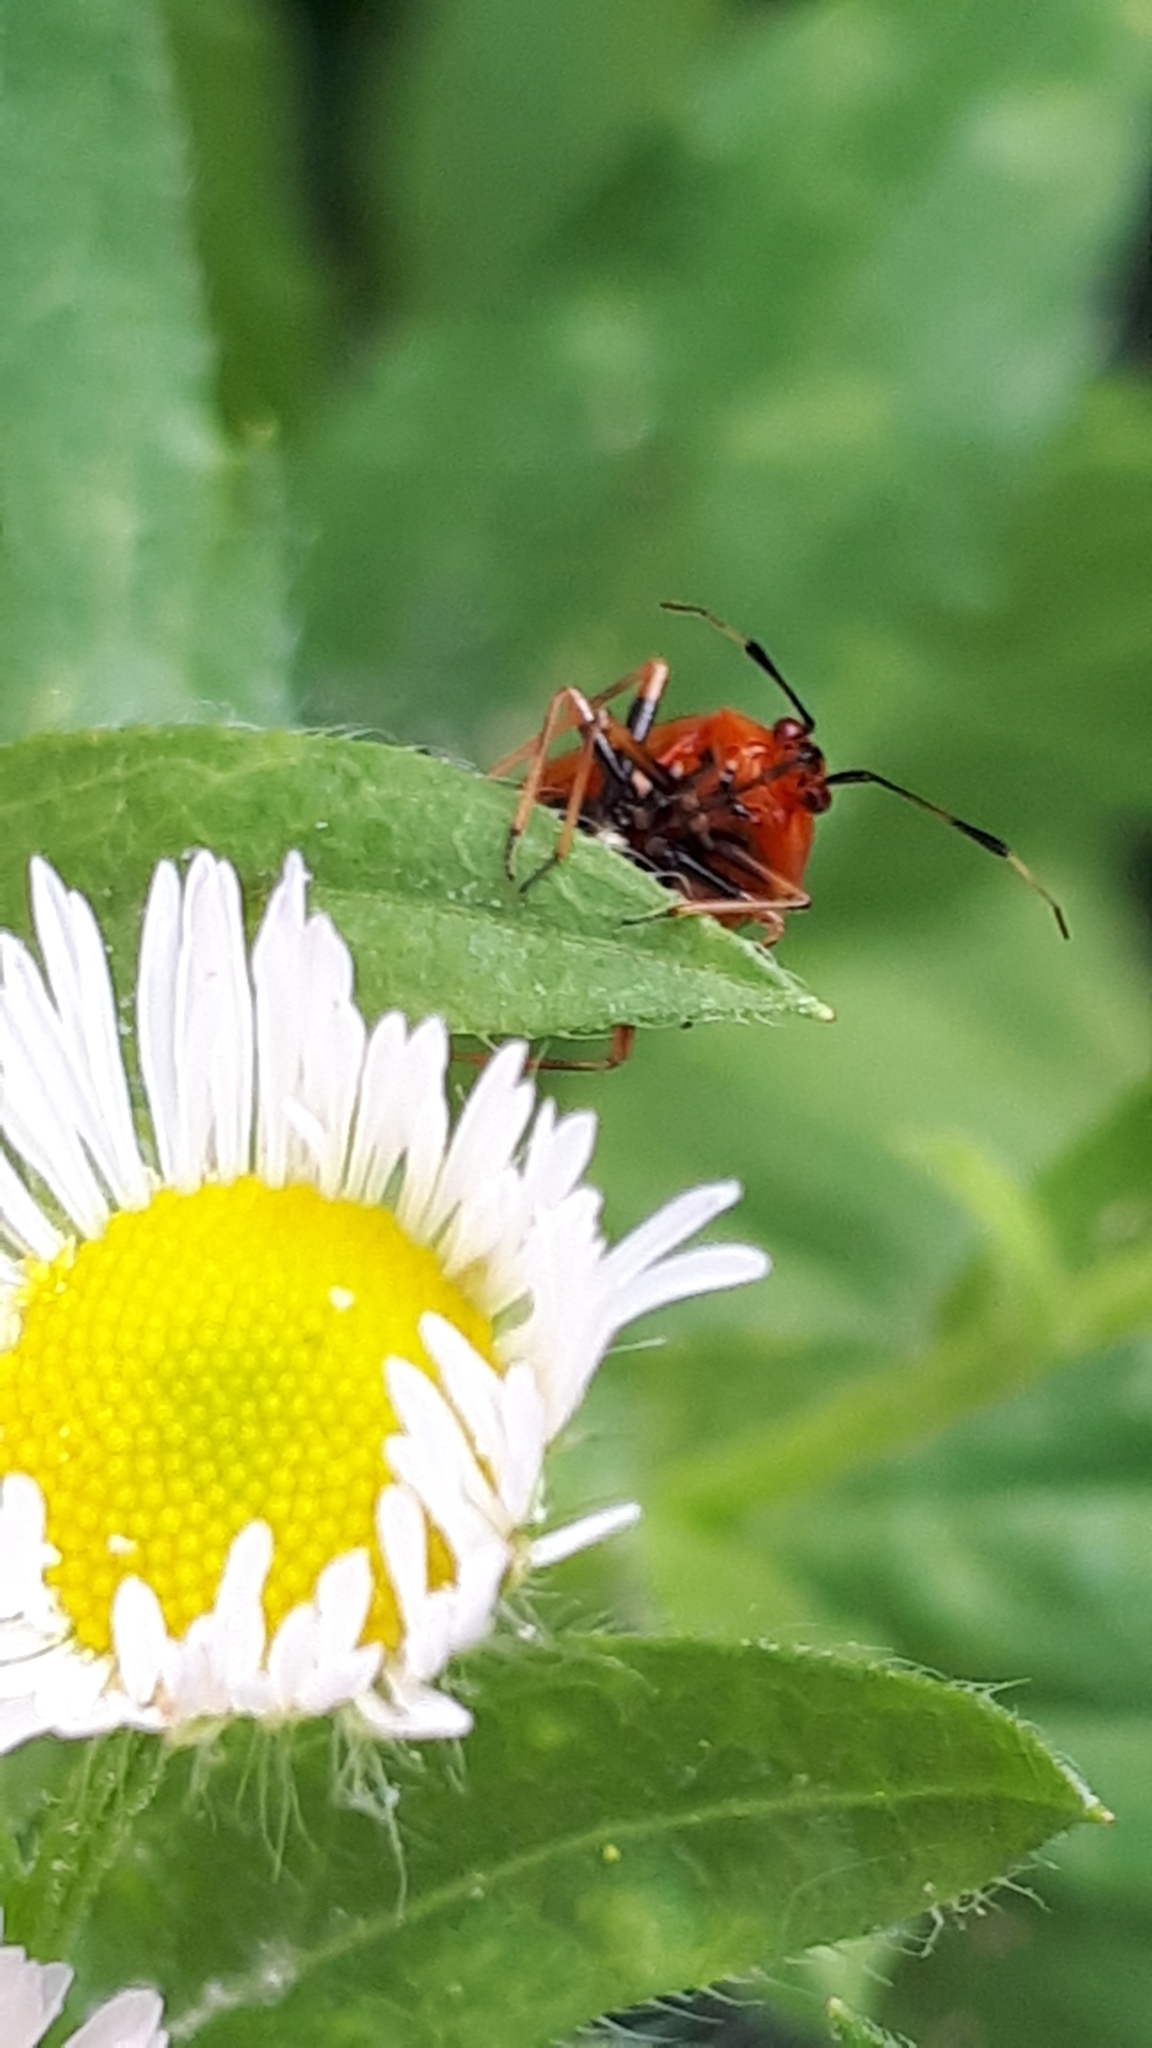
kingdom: Animalia
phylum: Arthropoda
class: Insecta
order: Hemiptera
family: Miridae
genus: Deraeocoris
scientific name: Deraeocoris ruber
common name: Plant bug
